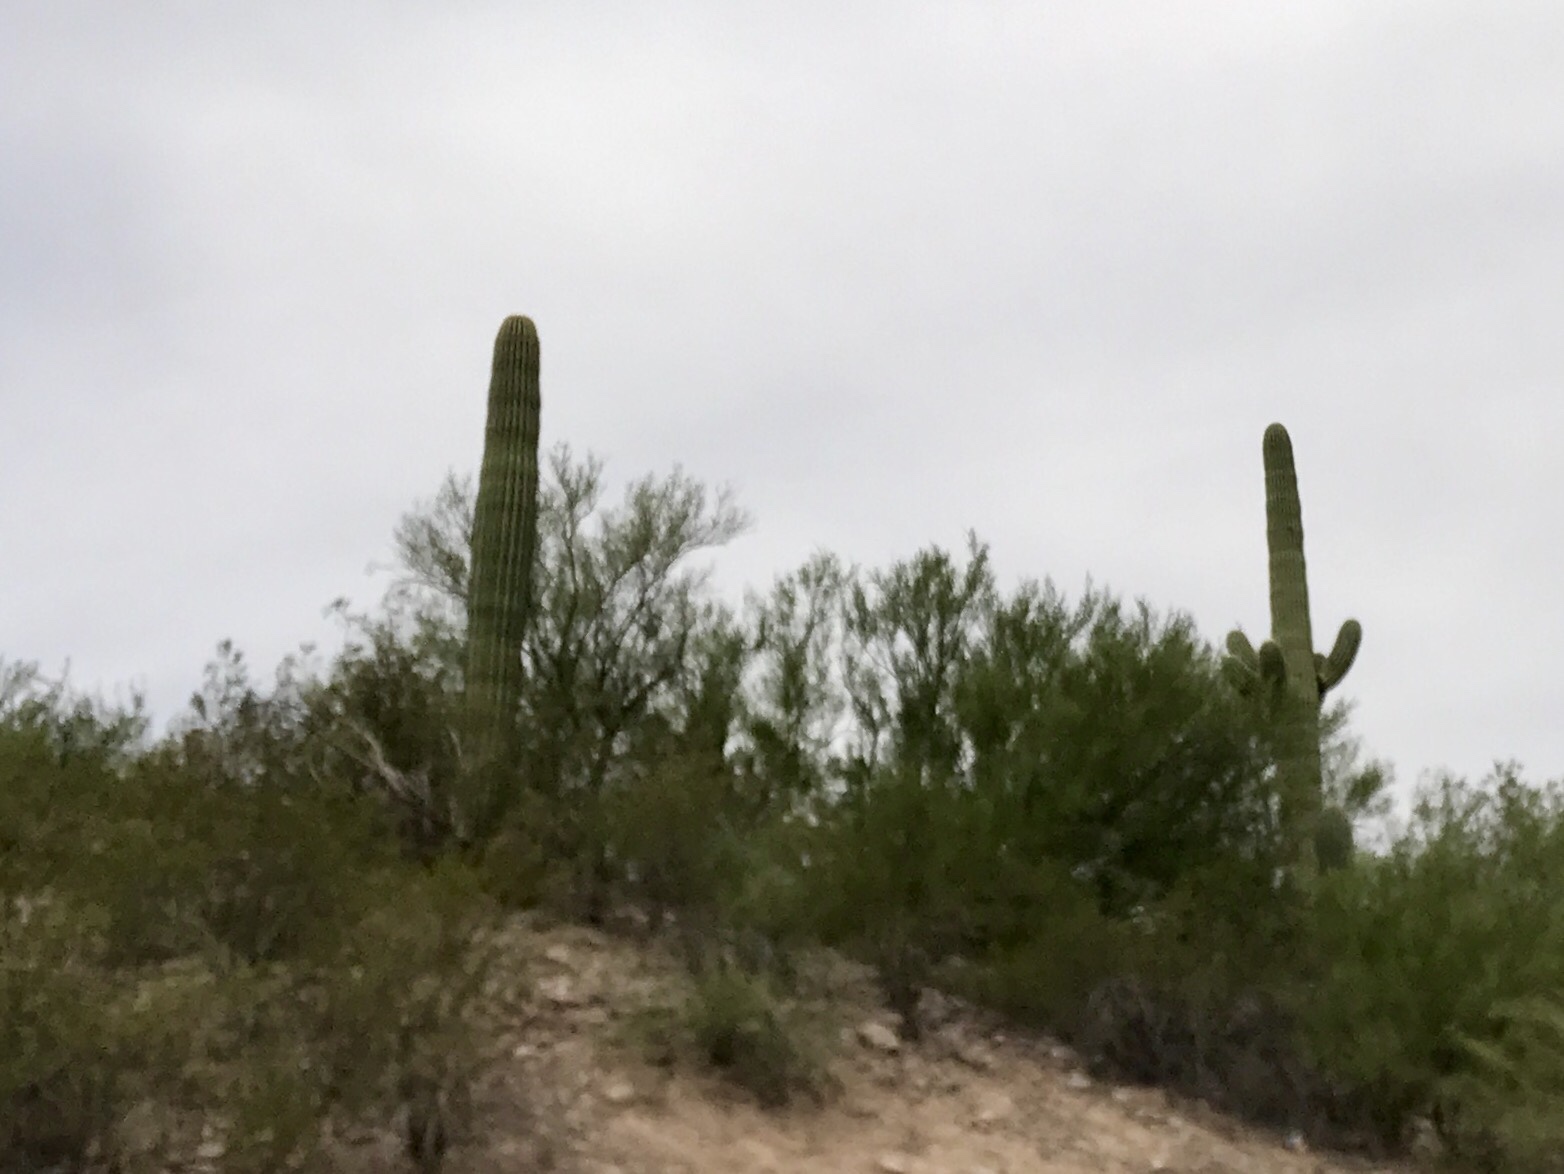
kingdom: Plantae
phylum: Tracheophyta
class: Magnoliopsida
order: Caryophyllales
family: Cactaceae
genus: Carnegiea
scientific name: Carnegiea gigantea
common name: Saguaro
